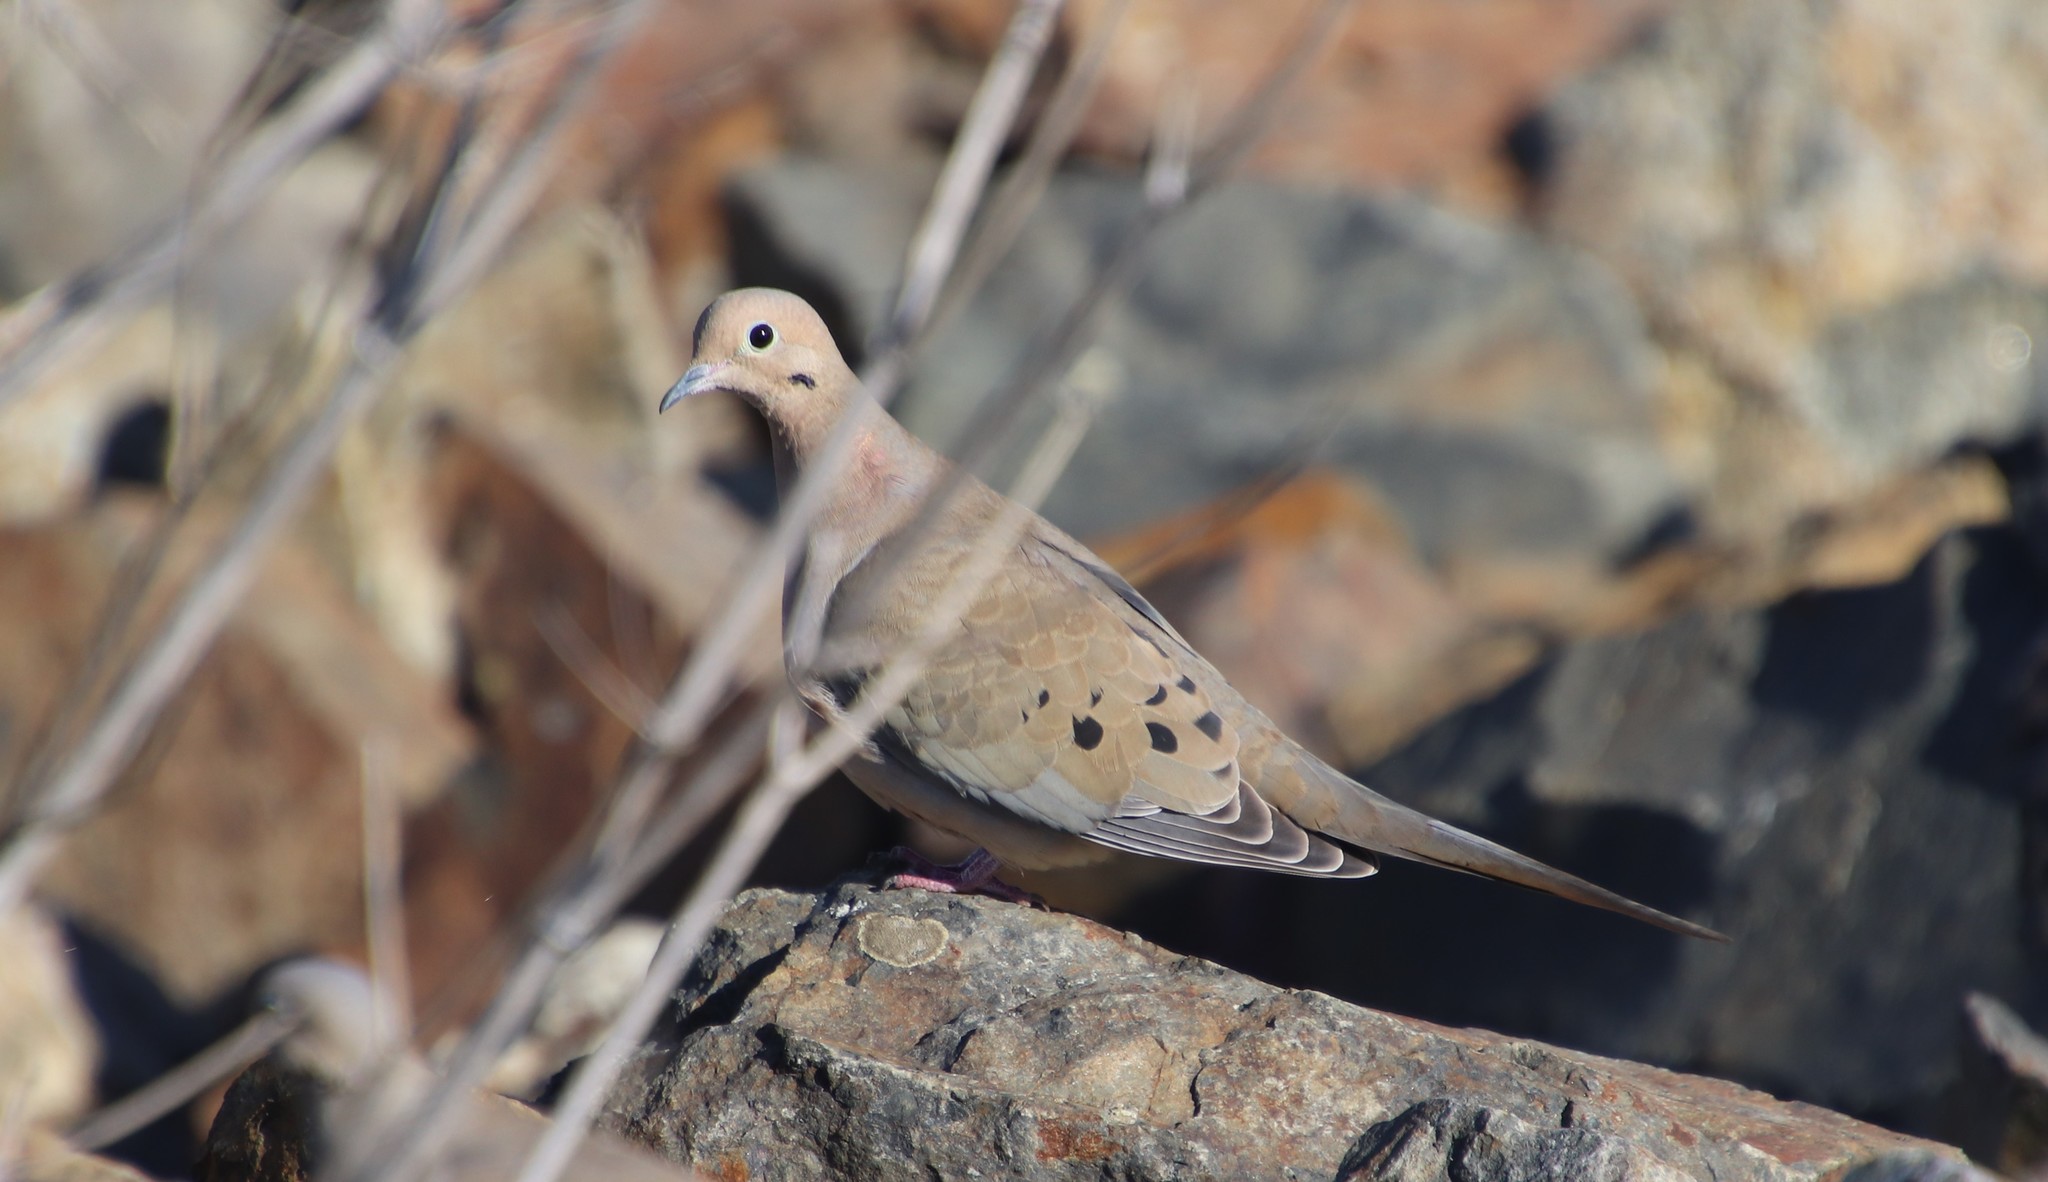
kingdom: Animalia
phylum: Chordata
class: Aves
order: Columbiformes
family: Columbidae
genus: Zenaida
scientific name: Zenaida macroura
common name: Mourning dove
